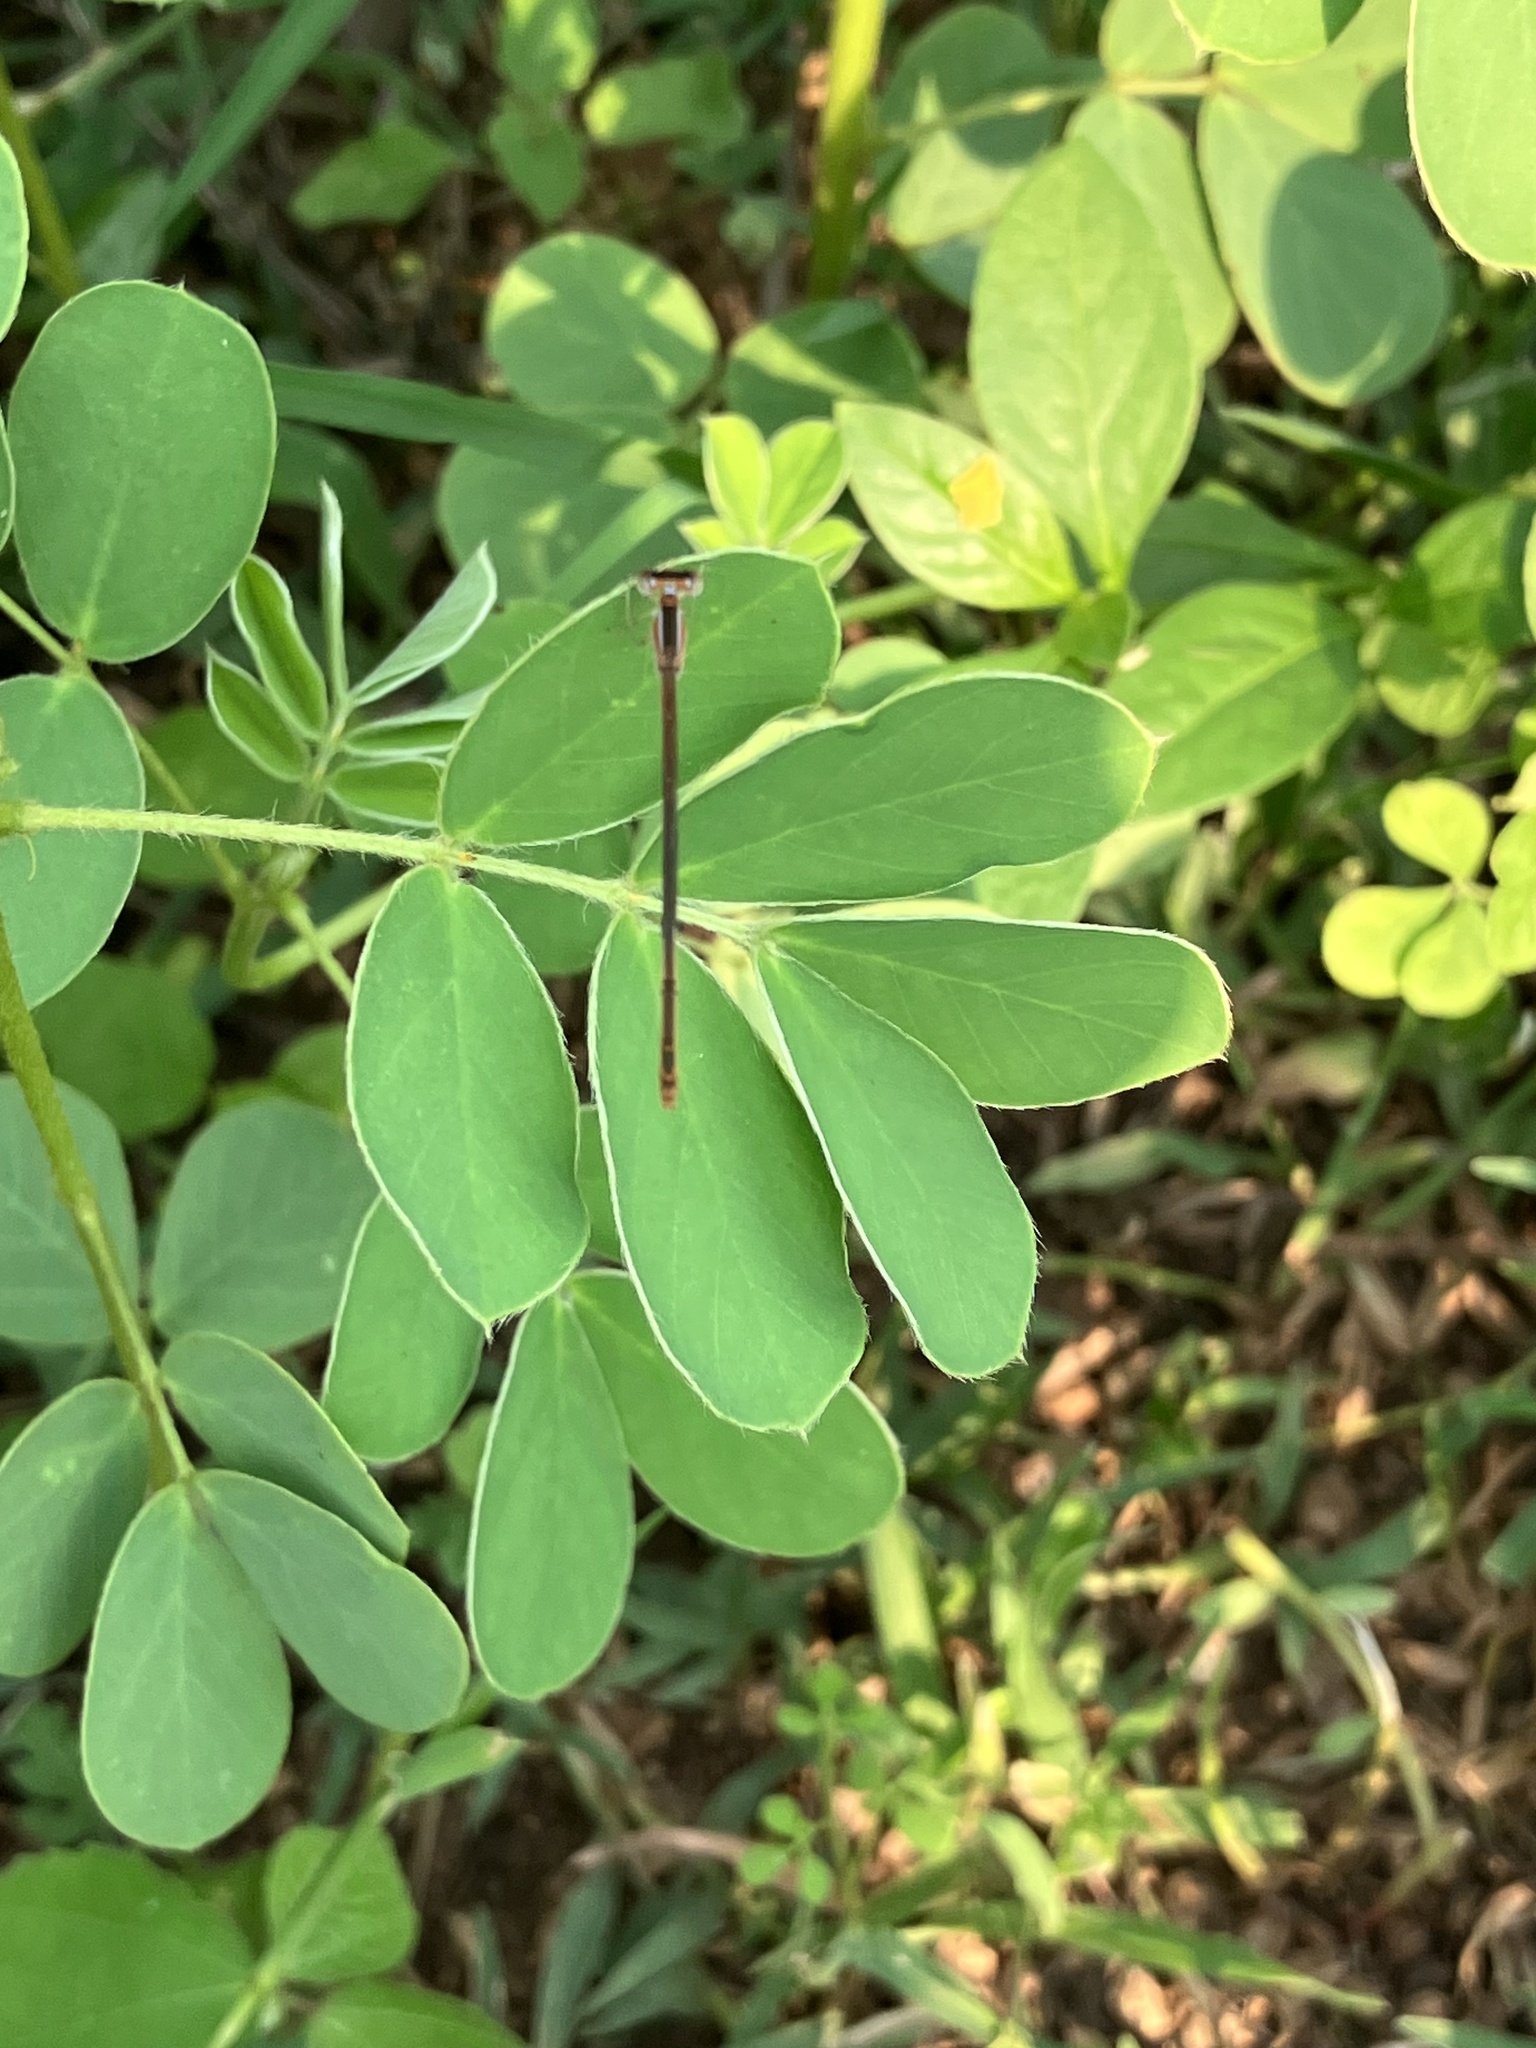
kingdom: Animalia
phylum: Arthropoda
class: Insecta
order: Odonata
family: Coenagrionidae
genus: Agriocnemis
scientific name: Agriocnemis pygmaea
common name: Pygmy wisp
